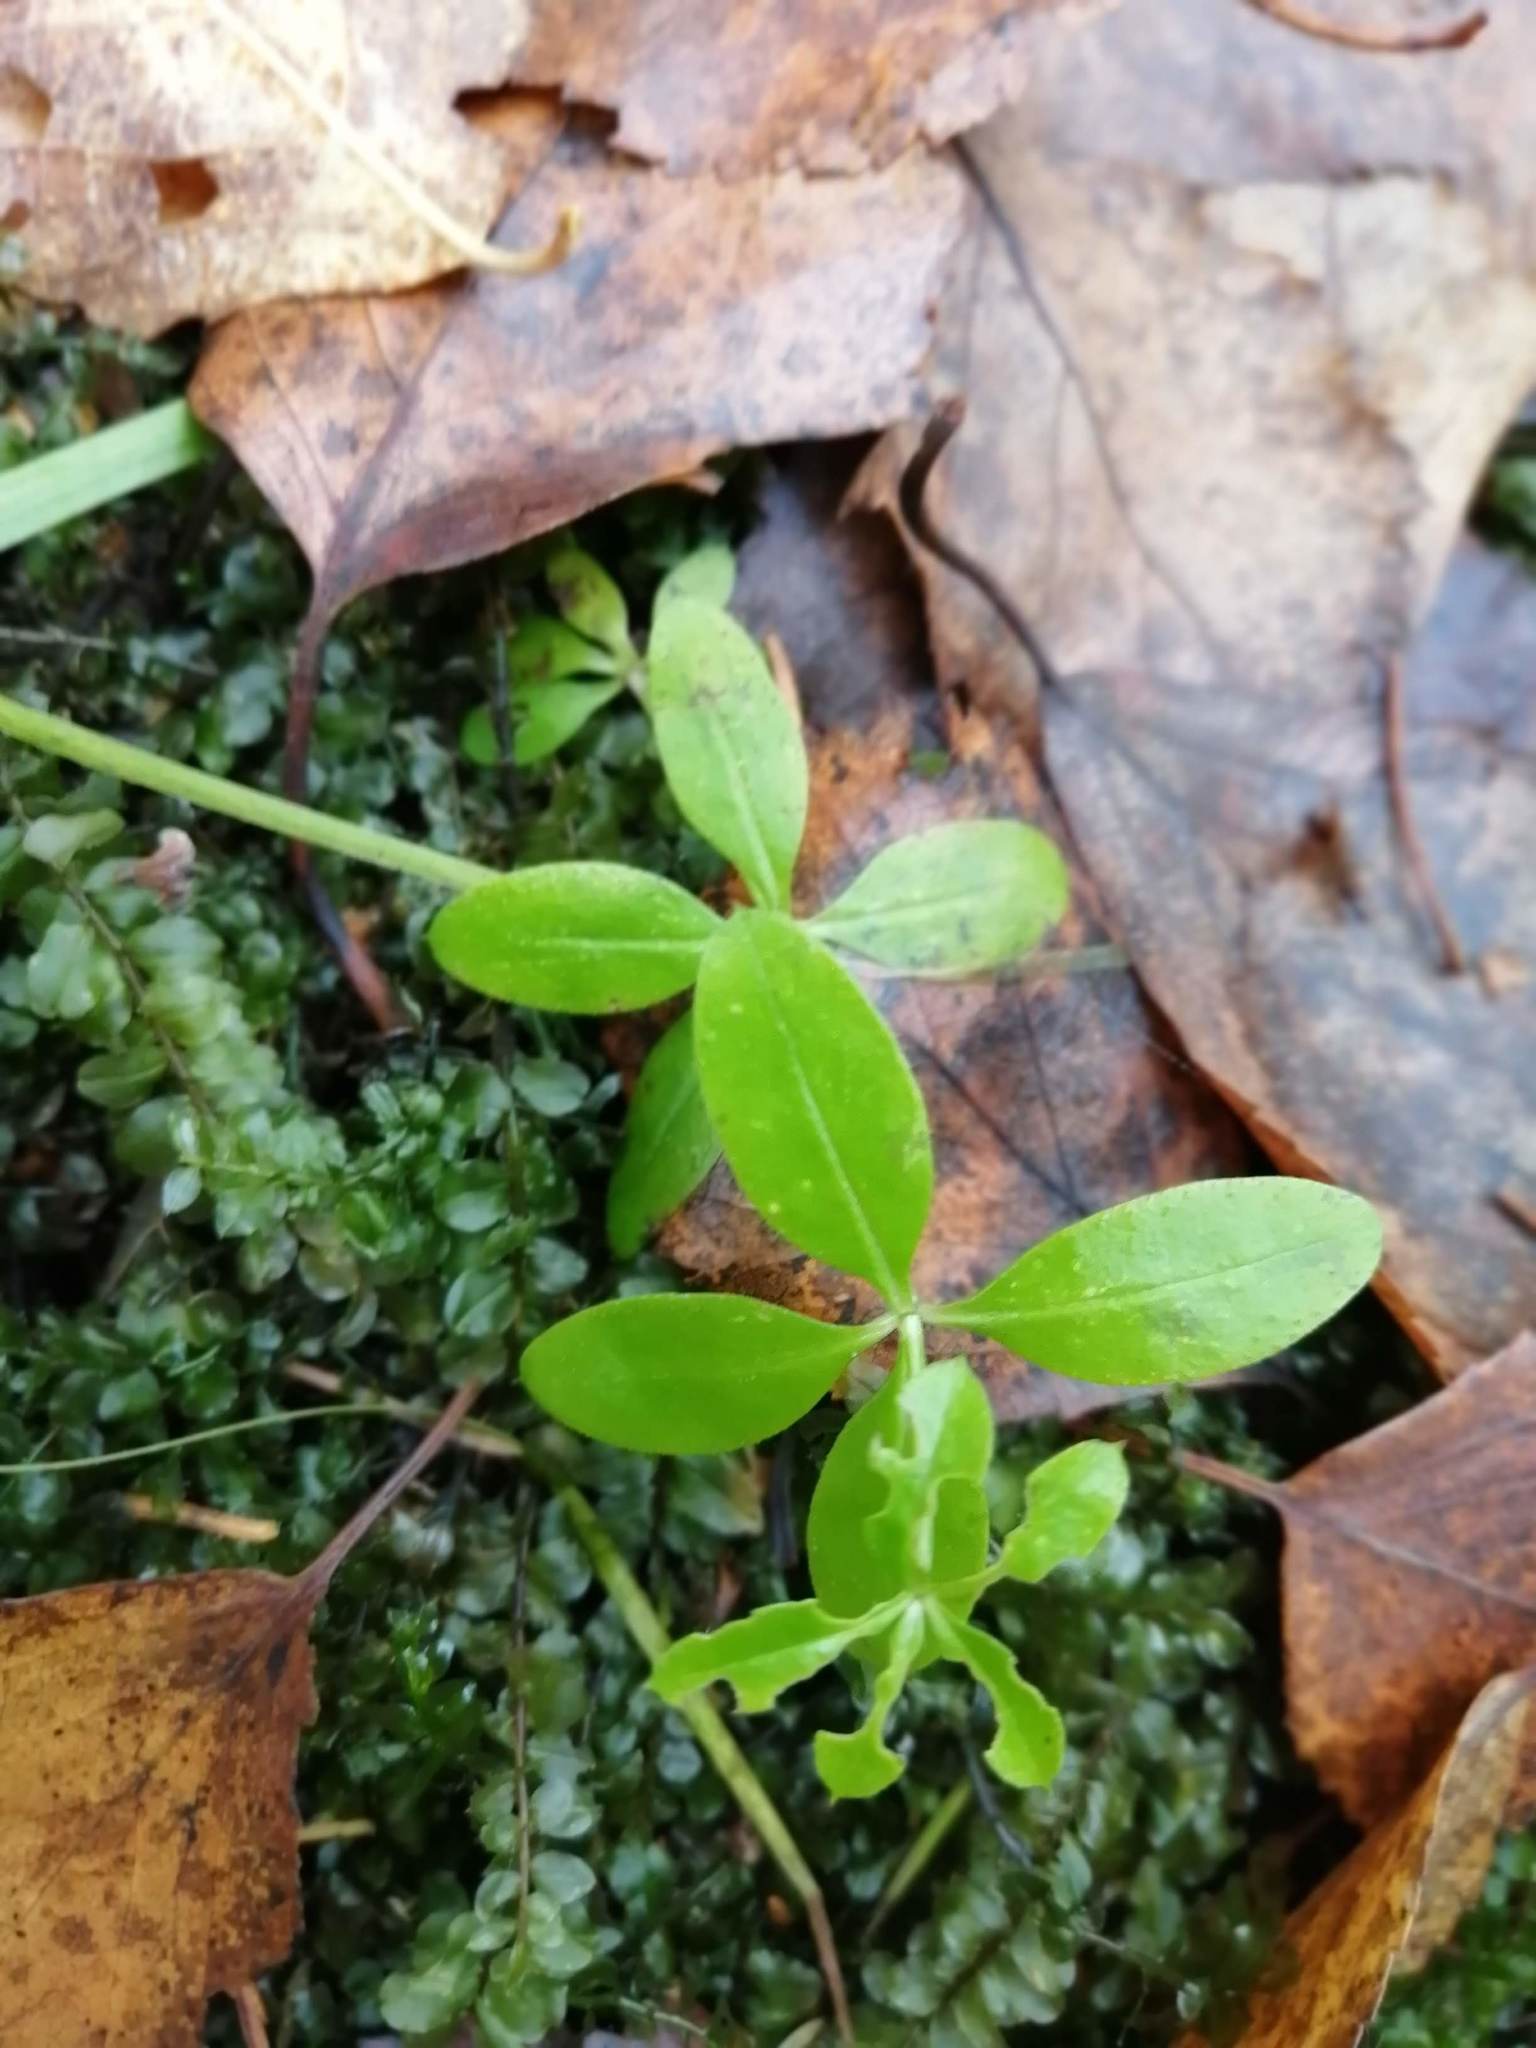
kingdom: Plantae
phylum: Tracheophyta
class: Magnoliopsida
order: Gentianales
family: Rubiaceae
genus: Galium
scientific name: Galium palustre
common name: Common marsh-bedstraw
